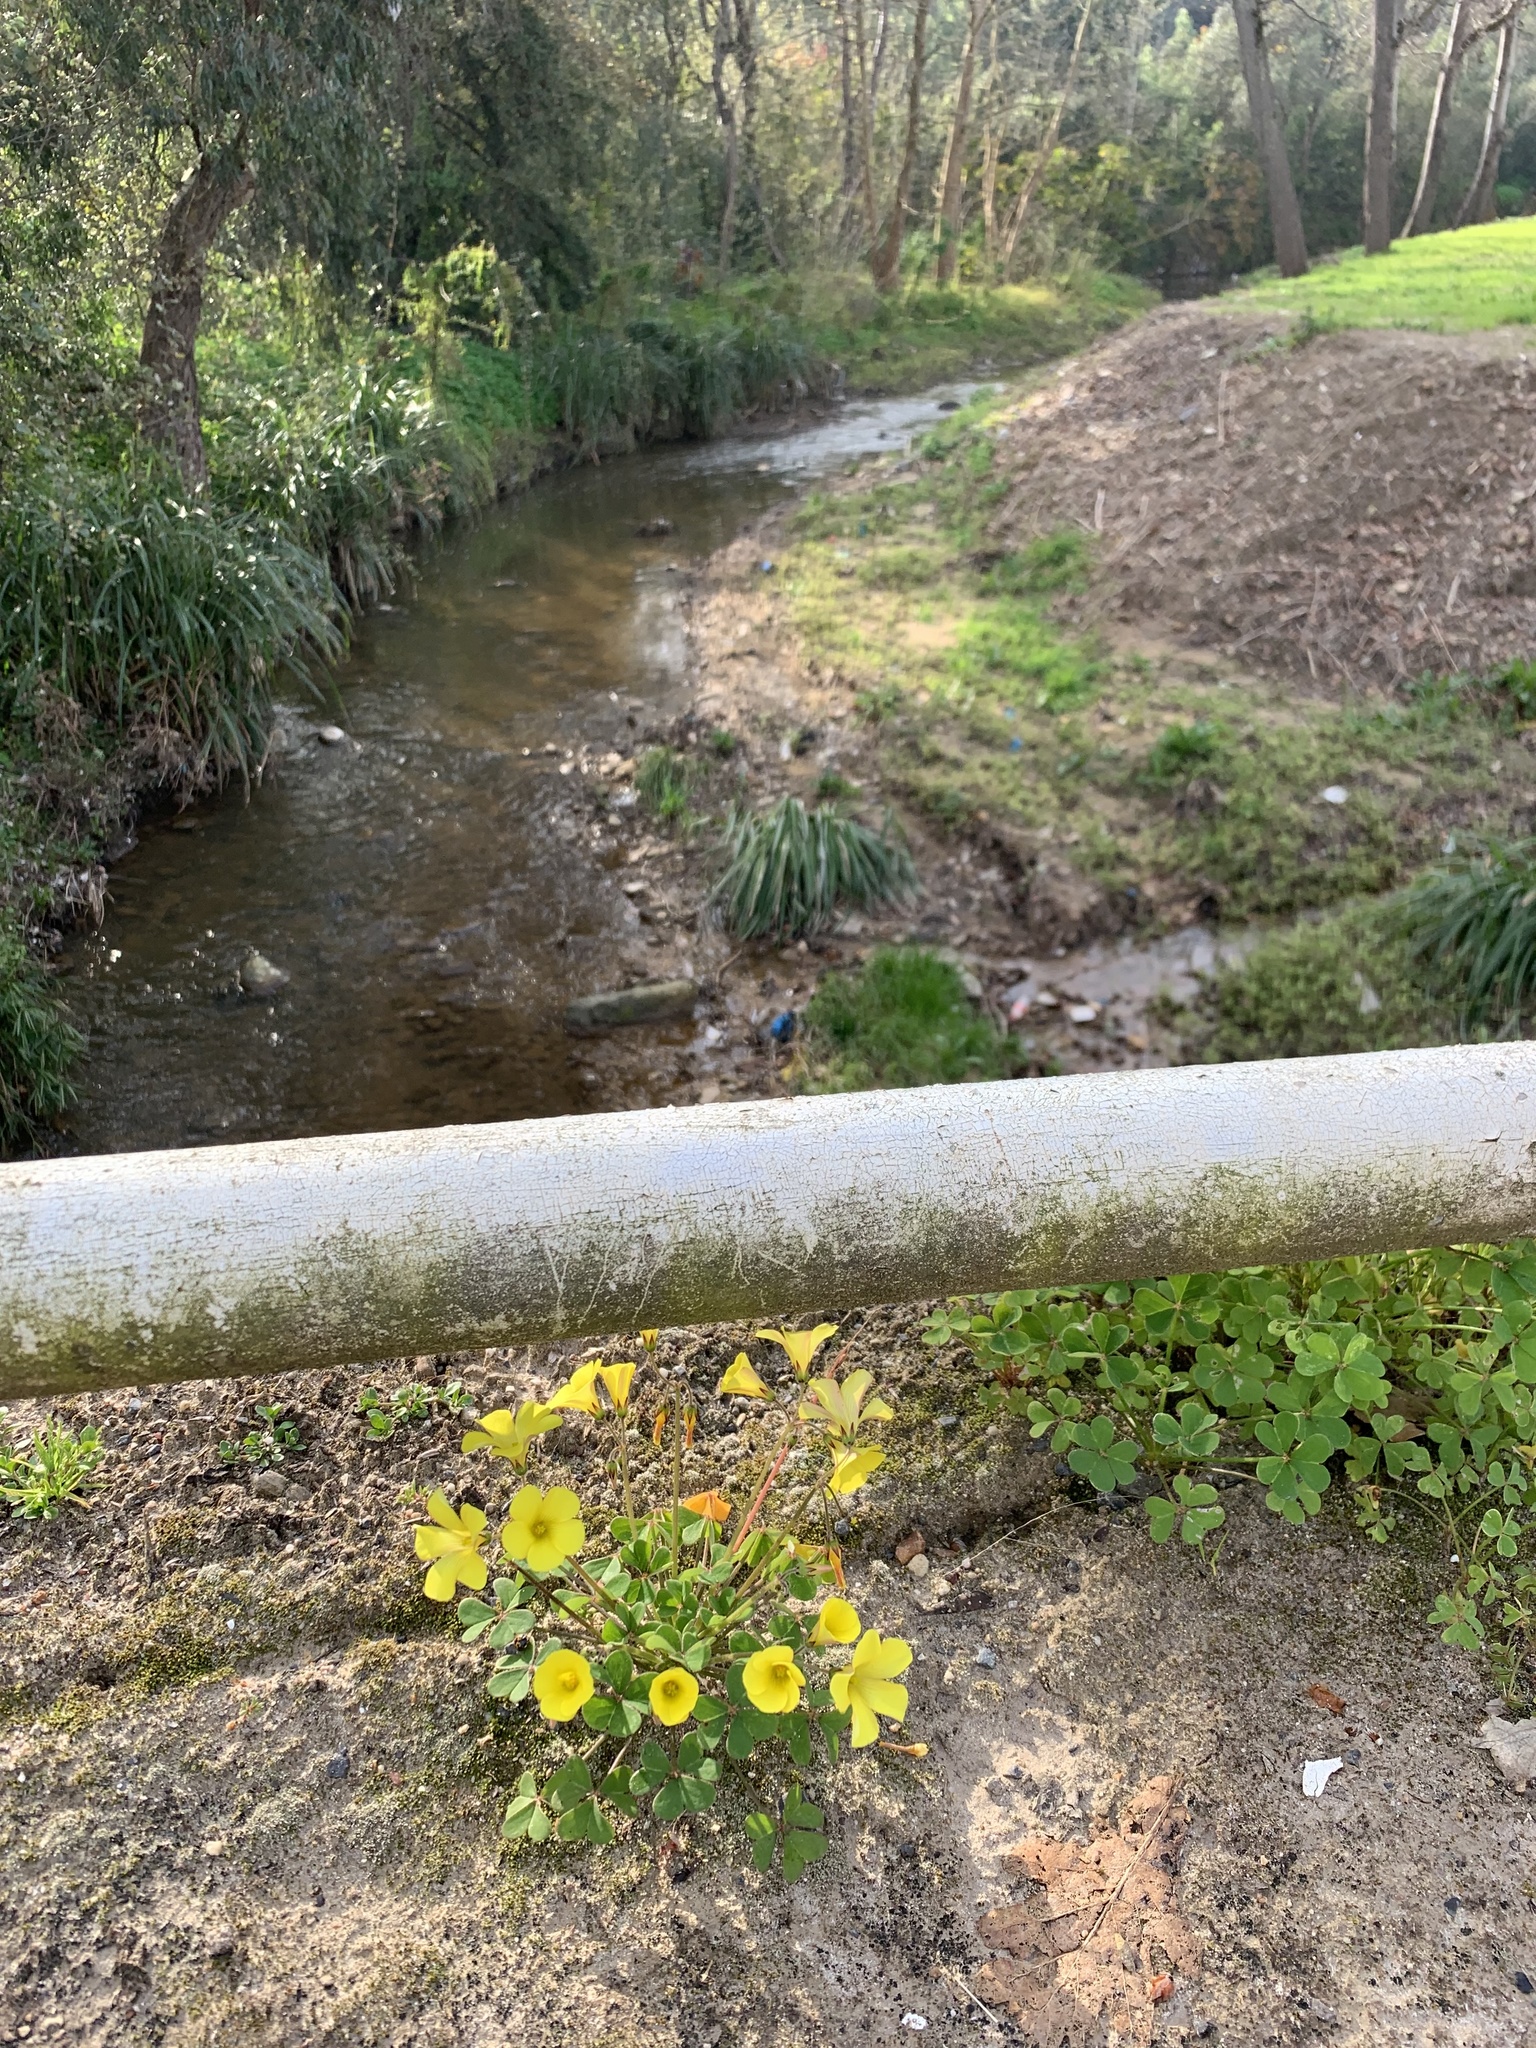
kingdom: Plantae
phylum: Tracheophyta
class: Magnoliopsida
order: Oxalidales
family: Oxalidaceae
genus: Oxalis
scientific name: Oxalis pes-caprae
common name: Bermuda-buttercup
